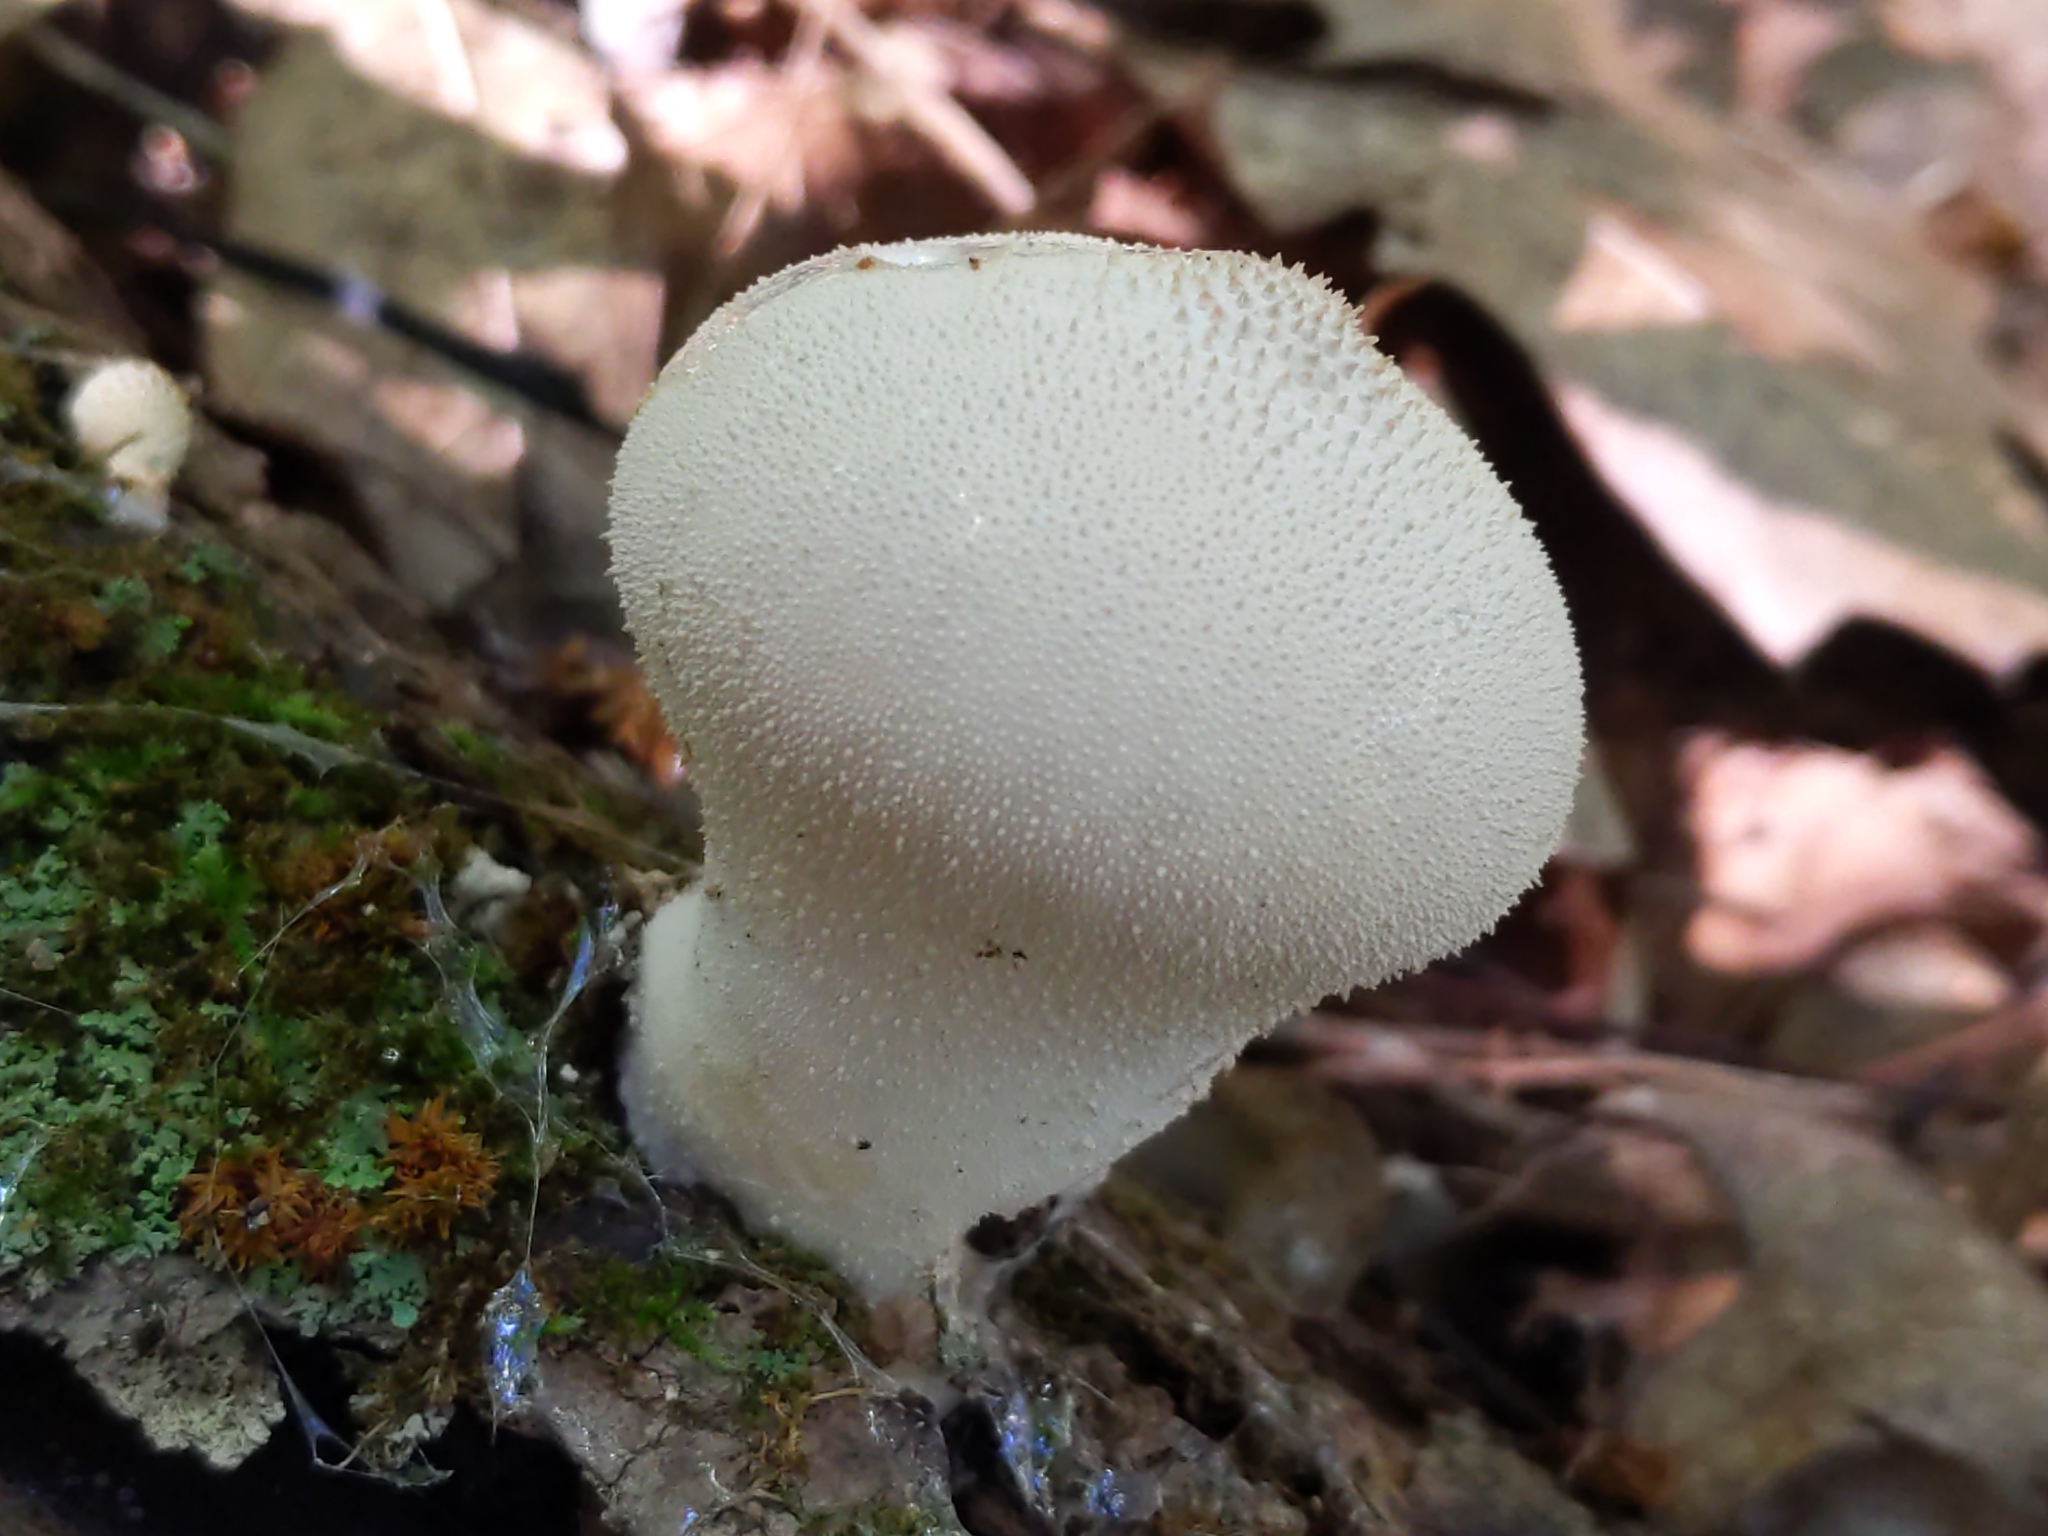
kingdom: Fungi
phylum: Basidiomycota
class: Agaricomycetes
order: Agaricales
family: Lycoperdaceae
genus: Lycoperdon
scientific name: Lycoperdon perlatum
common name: Common puffball
